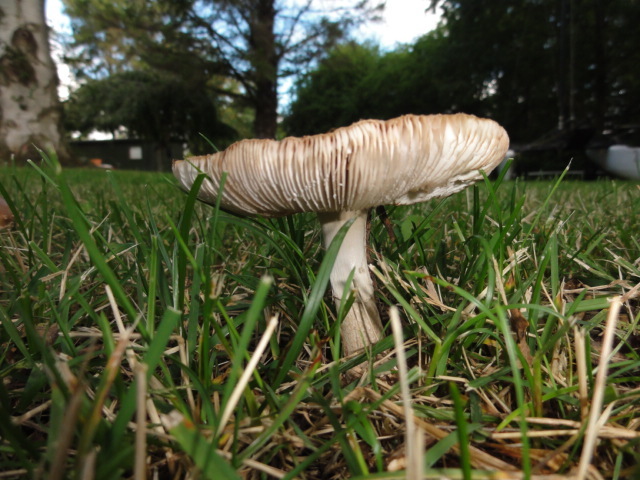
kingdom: Fungi
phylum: Basidiomycota
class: Agaricomycetes
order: Agaricales
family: Amanitaceae
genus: Amanita
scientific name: Amanita rubescens
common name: Blusher
